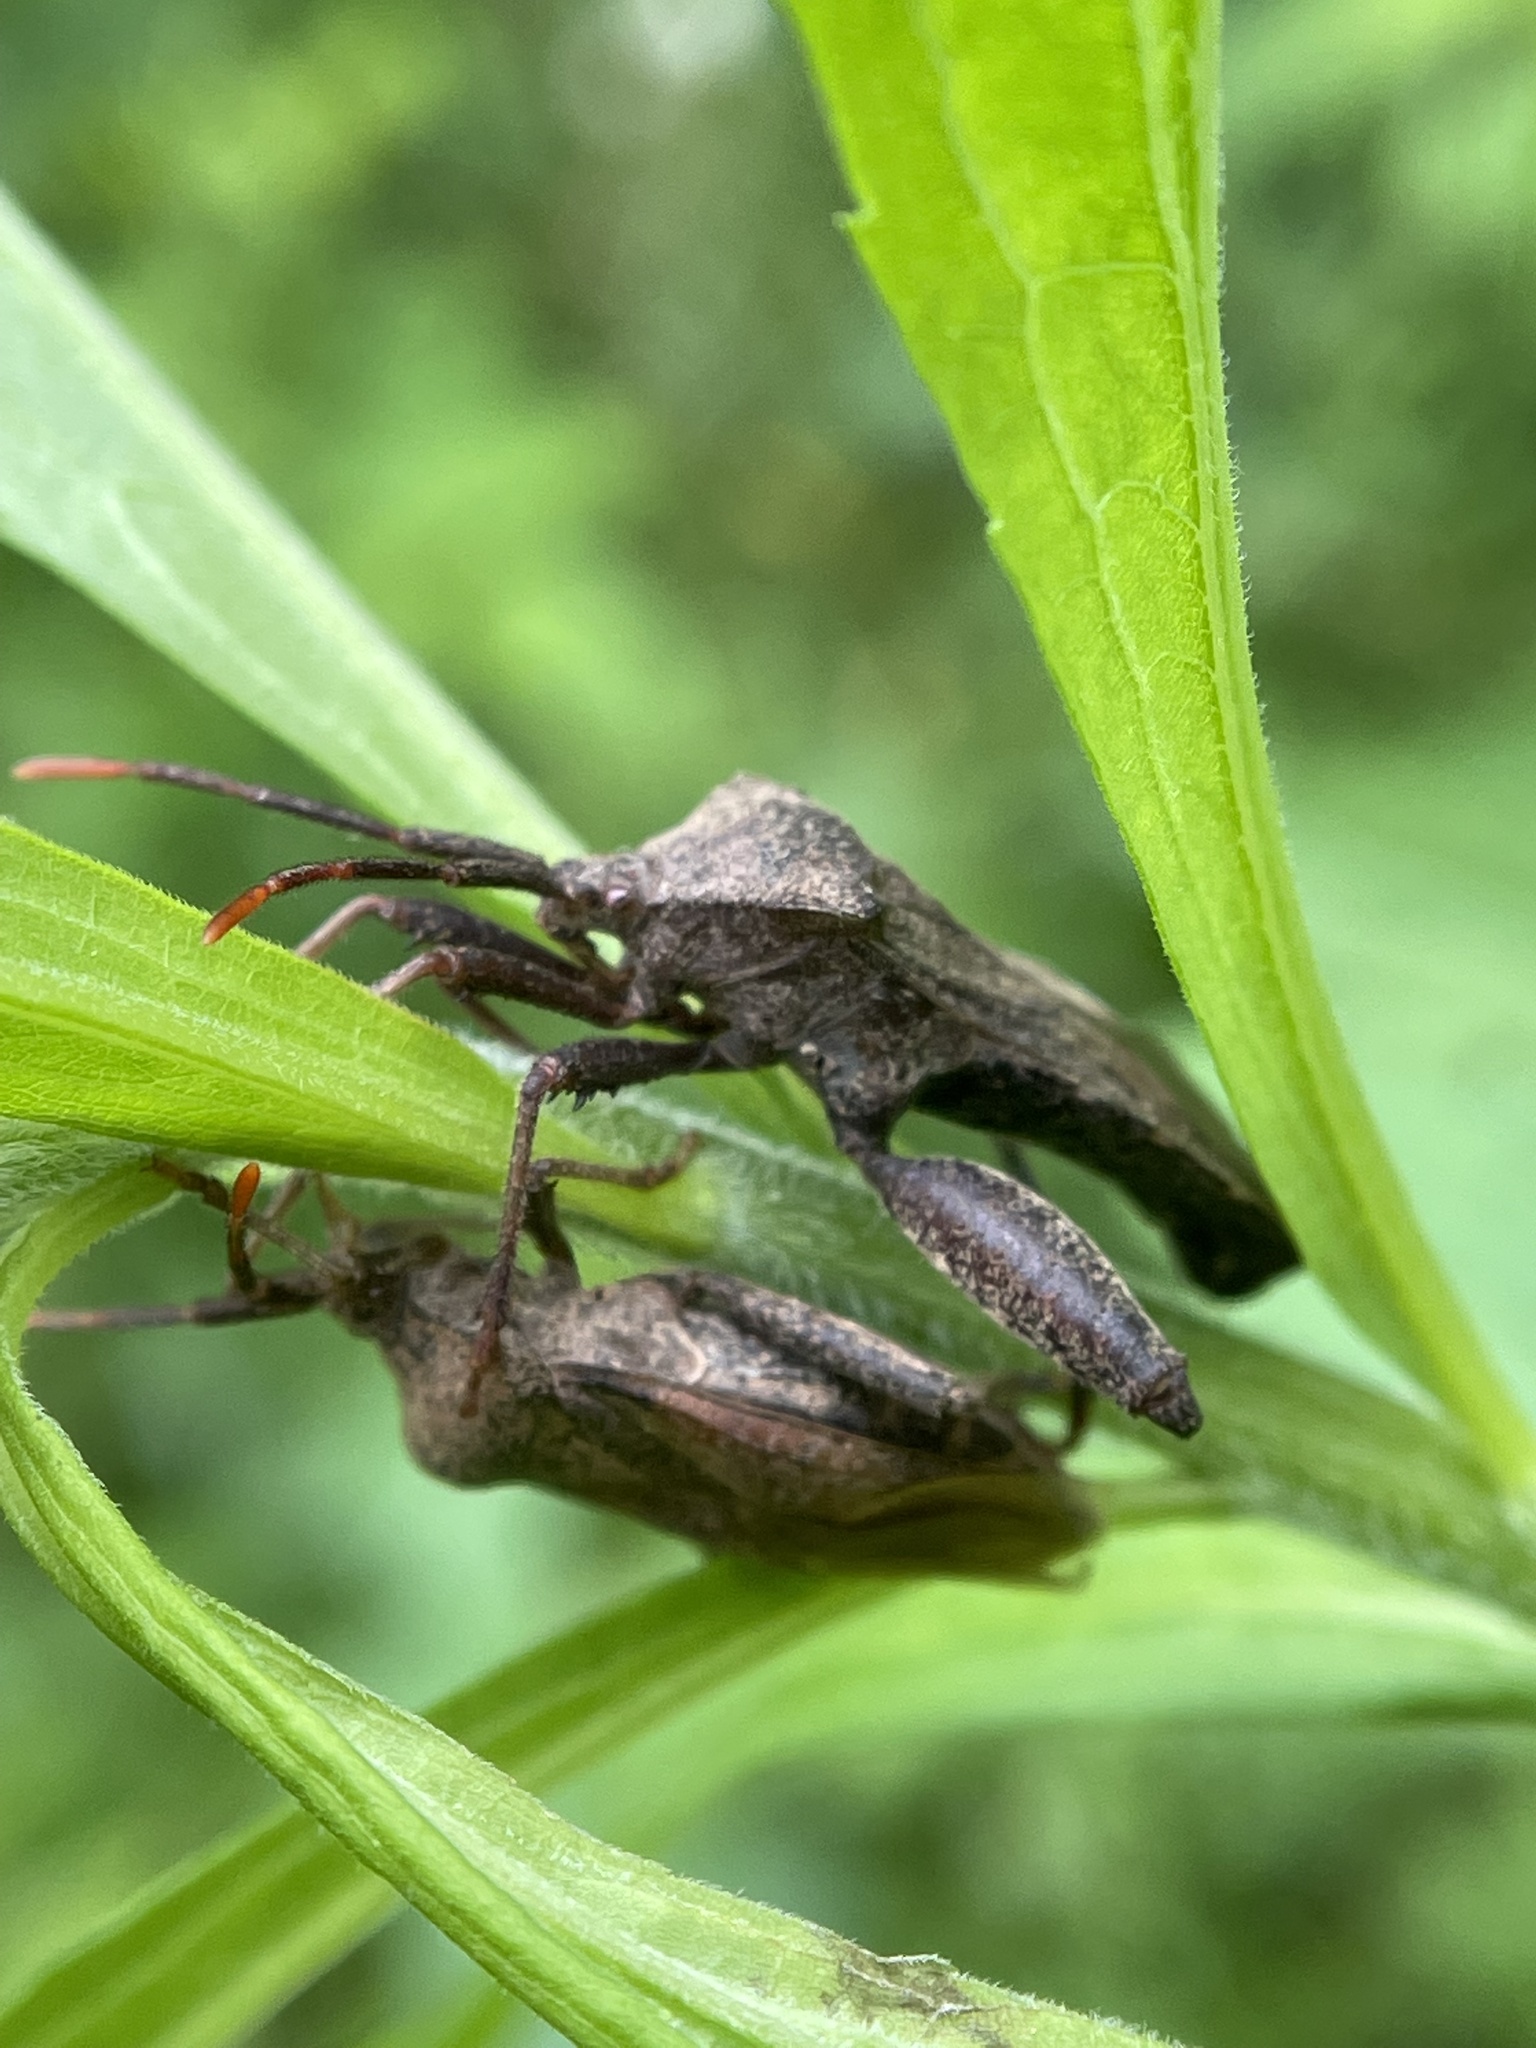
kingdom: Animalia
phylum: Arthropoda
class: Insecta
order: Hemiptera
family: Coreidae
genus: Piezogaster
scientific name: Piezogaster calcarator
